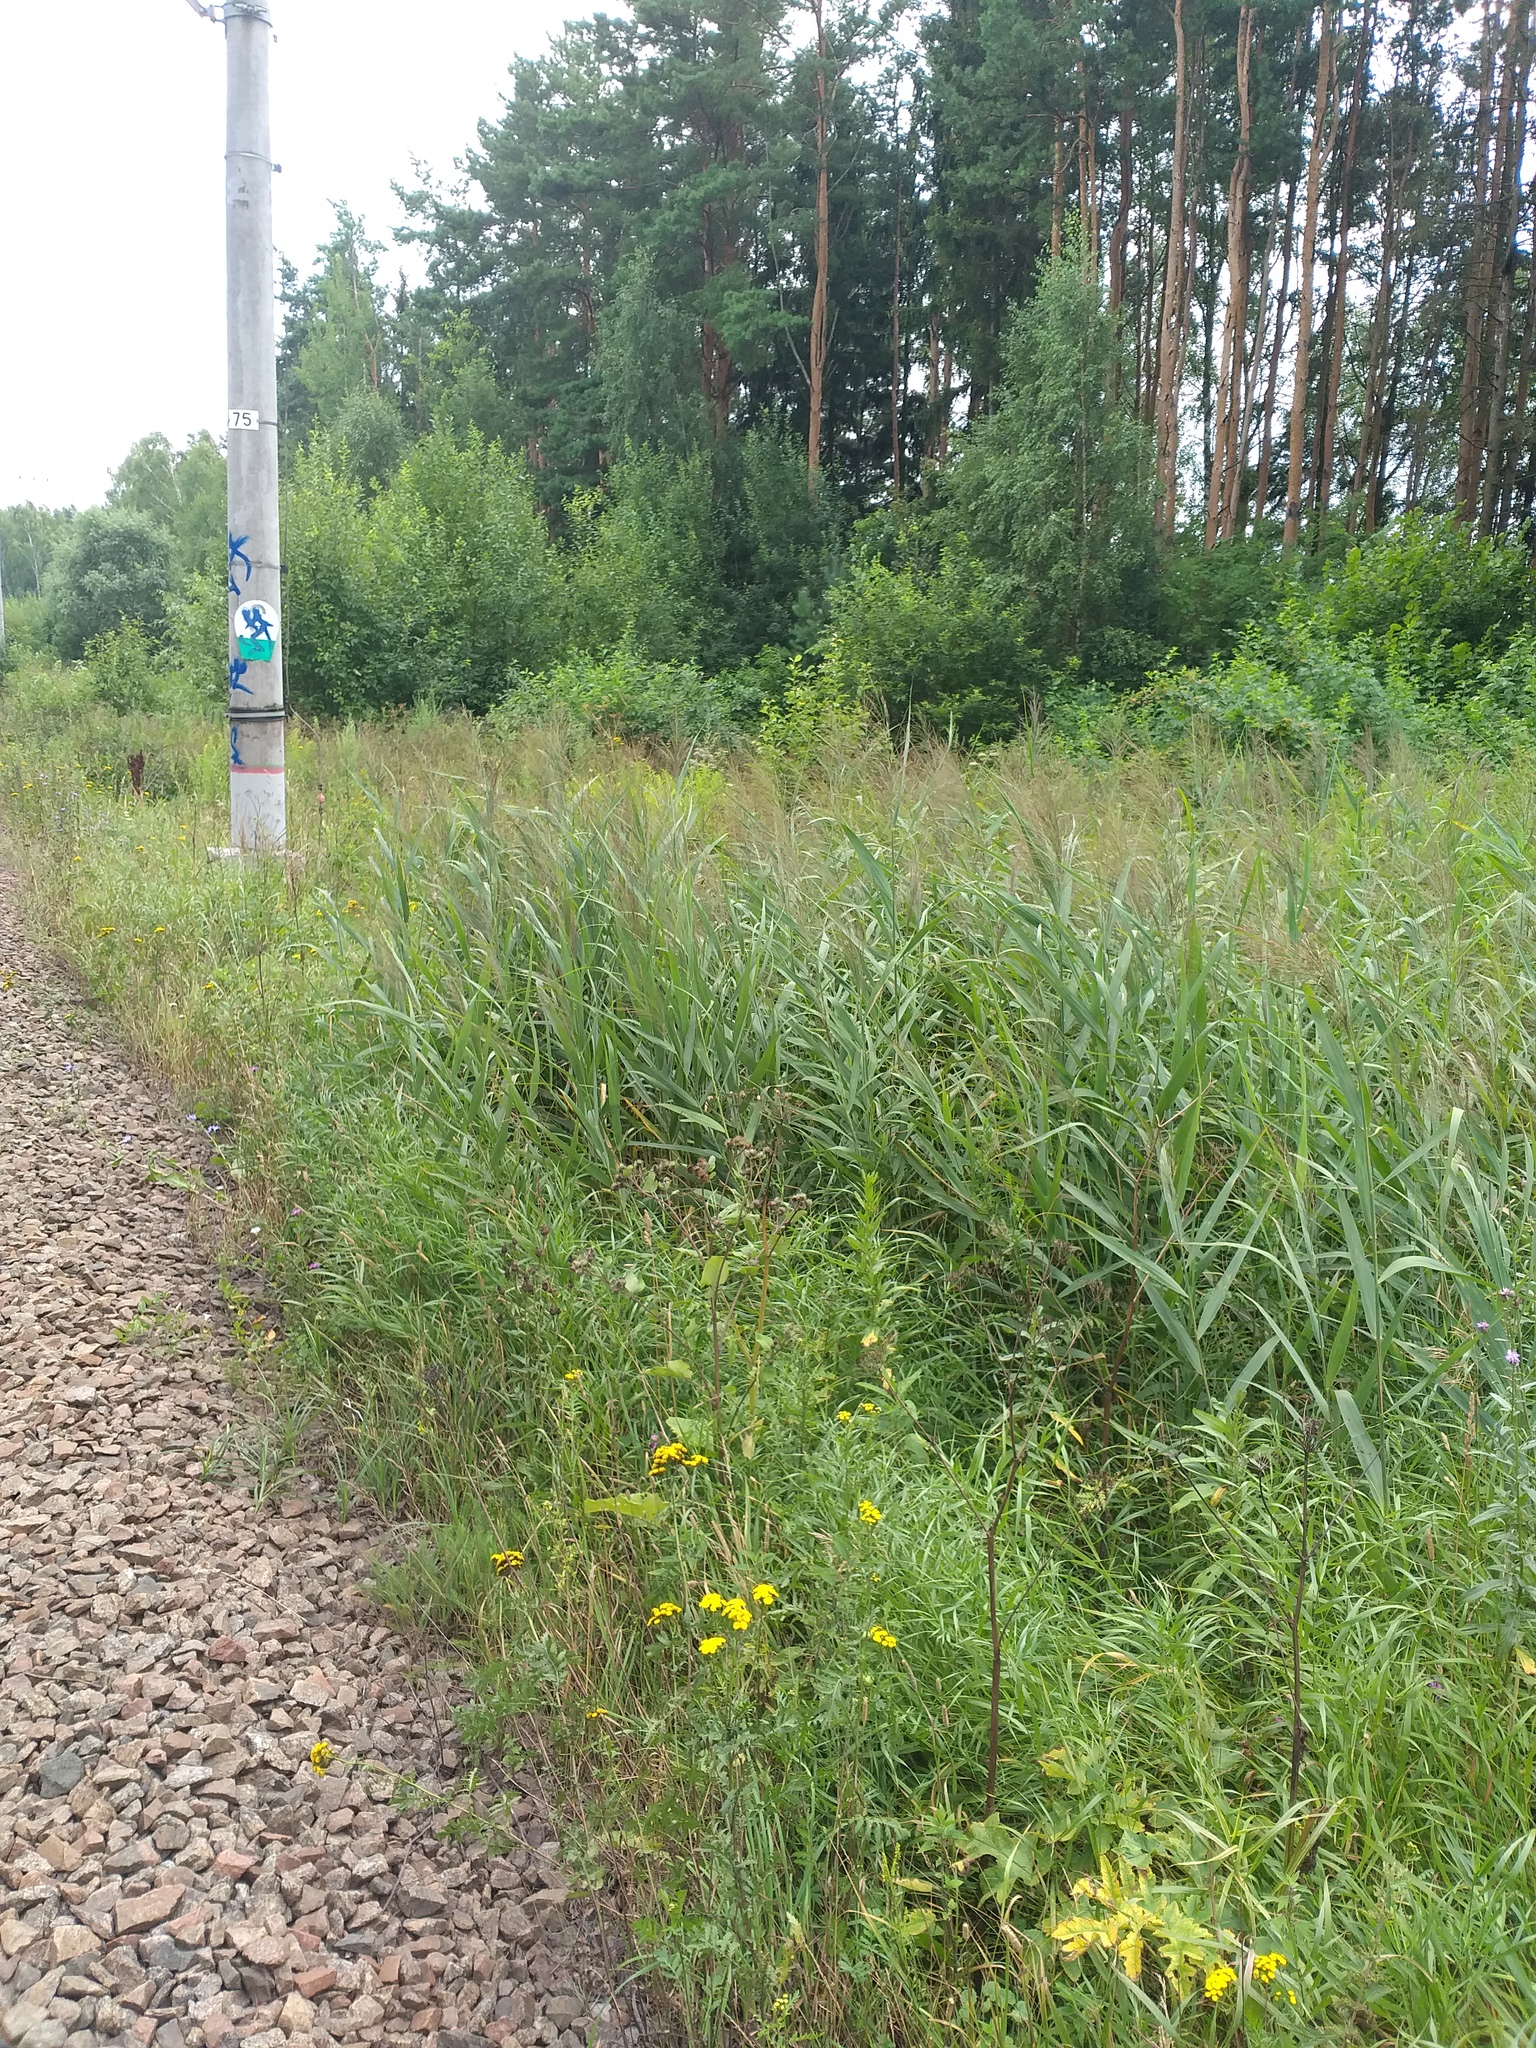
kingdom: Plantae
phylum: Tracheophyta
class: Liliopsida
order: Poales
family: Poaceae
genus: Phragmites
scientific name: Phragmites australis
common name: Common reed
